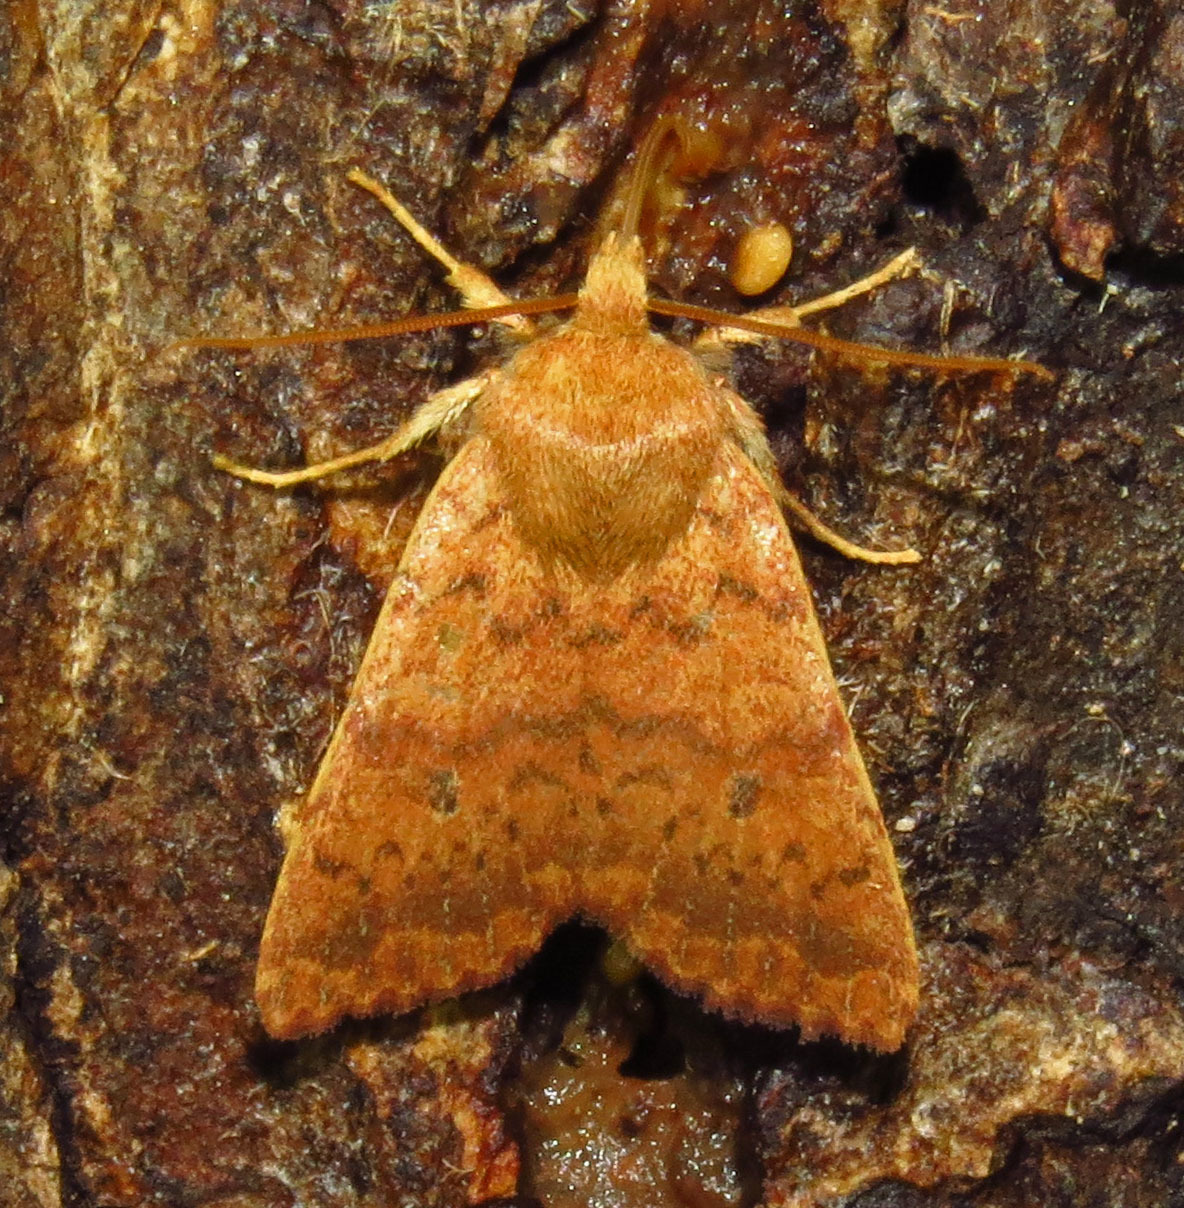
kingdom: Animalia
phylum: Arthropoda
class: Insecta
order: Lepidoptera
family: Noctuidae
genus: Agrochola
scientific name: Agrochola bicolorago
